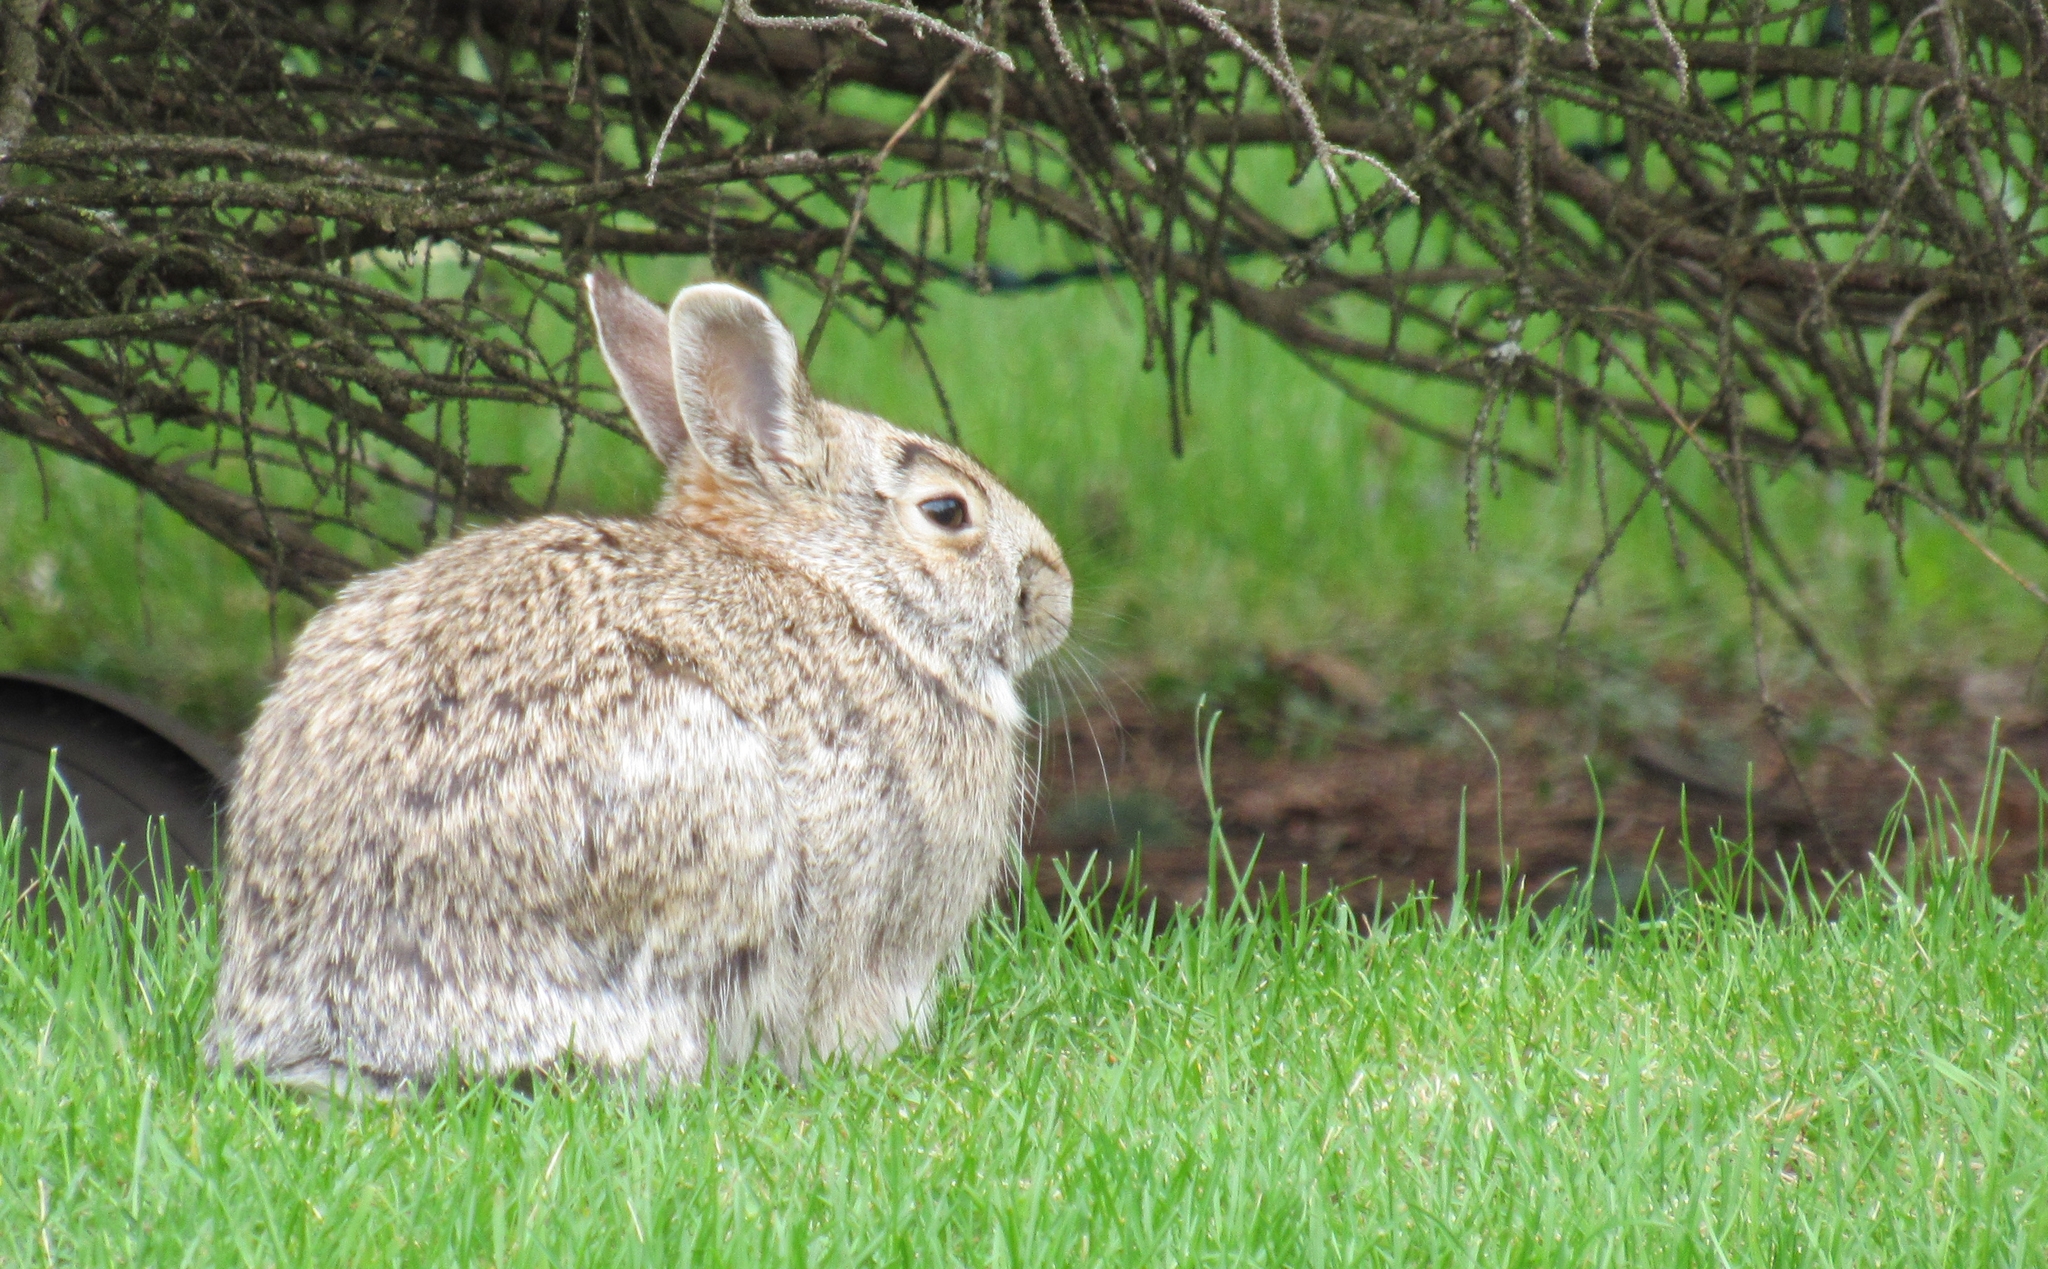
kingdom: Animalia
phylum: Chordata
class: Mammalia
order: Lagomorpha
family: Leporidae
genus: Sylvilagus
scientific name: Sylvilagus floridanus
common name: Eastern cottontail
